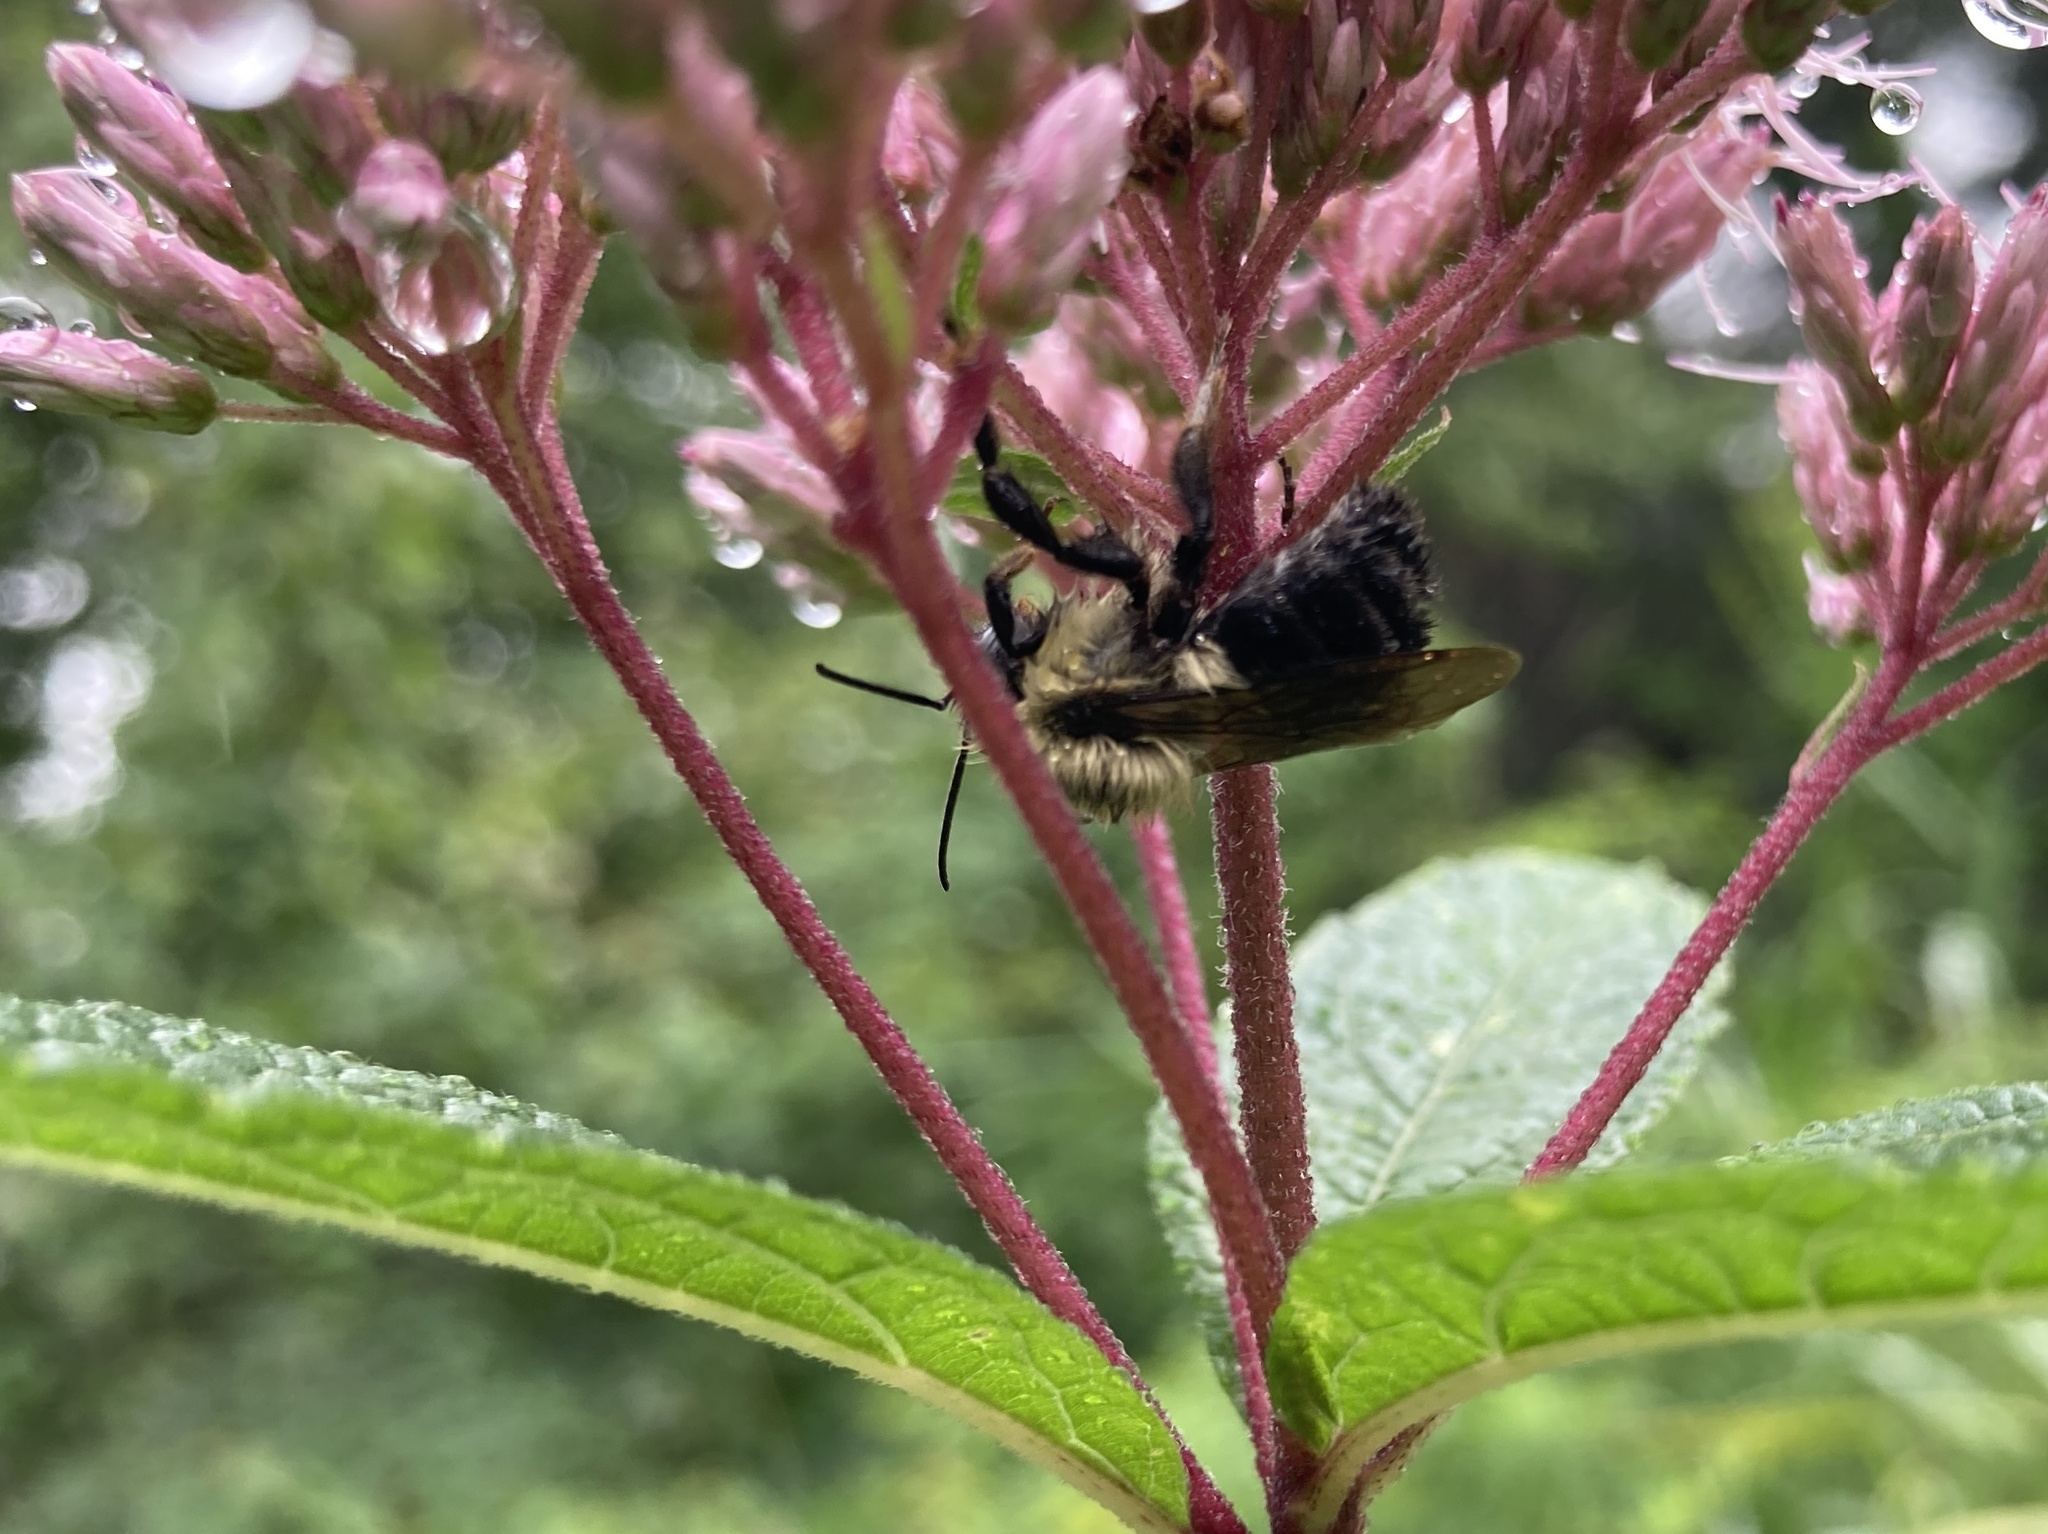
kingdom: Animalia
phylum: Arthropoda
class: Insecta
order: Hymenoptera
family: Apidae
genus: Bombus
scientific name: Bombus impatiens
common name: Common eastern bumble bee
